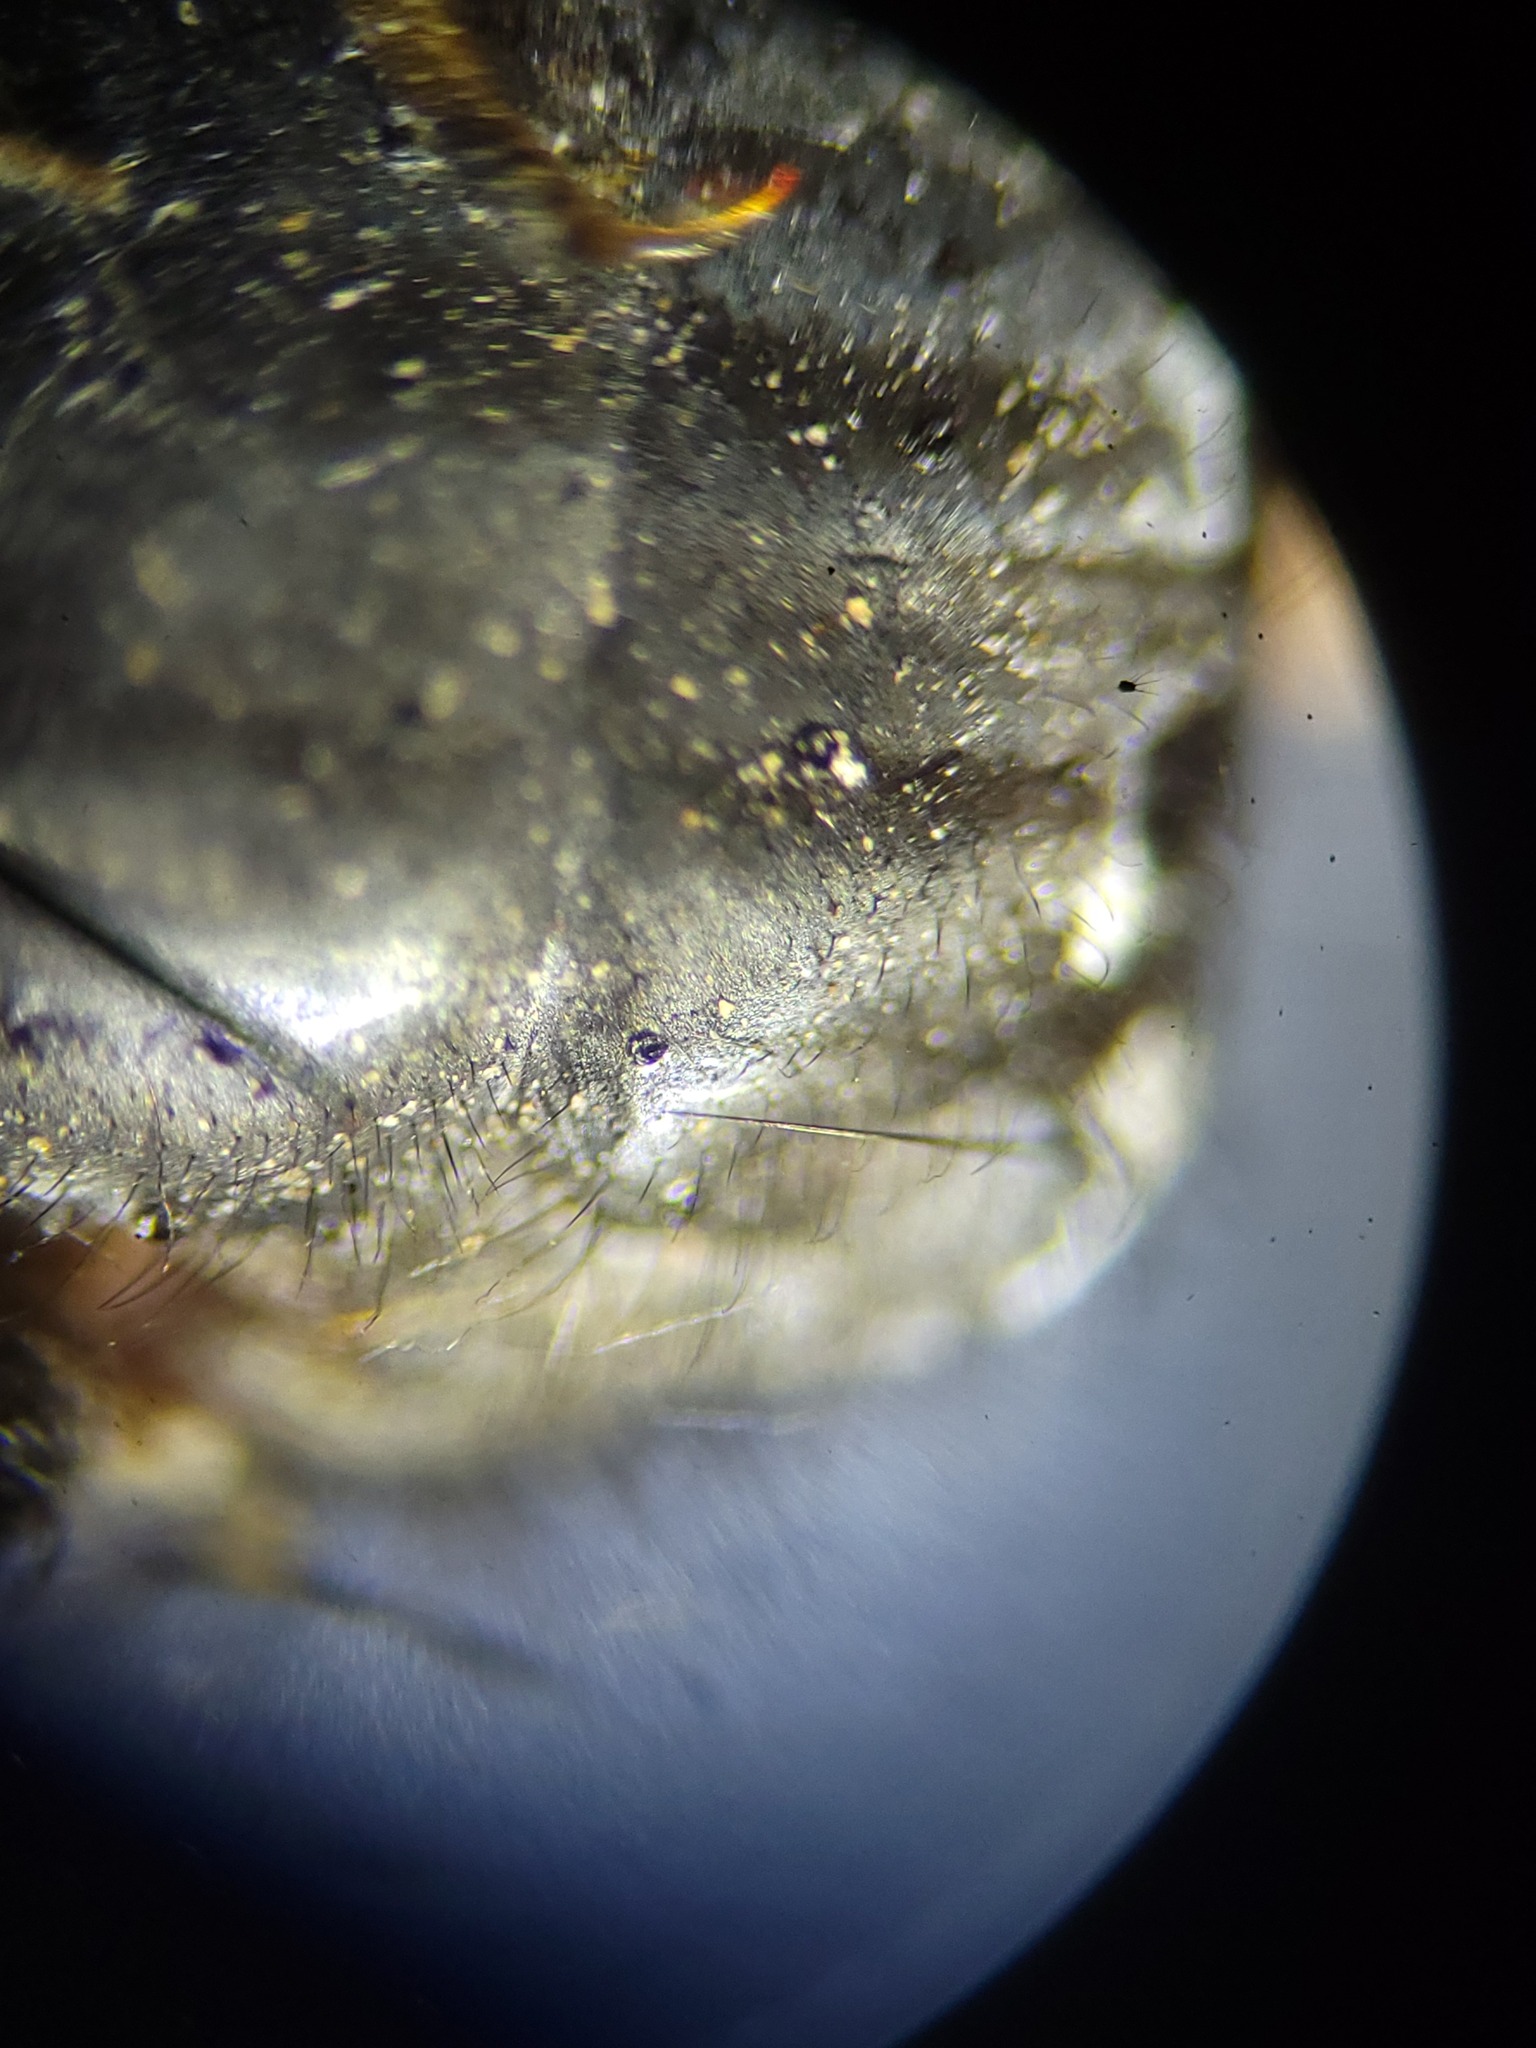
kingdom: Animalia
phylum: Arthropoda
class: Insecta
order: Diptera
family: Calliphoridae
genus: Calliphora
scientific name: Calliphora coloradensis
